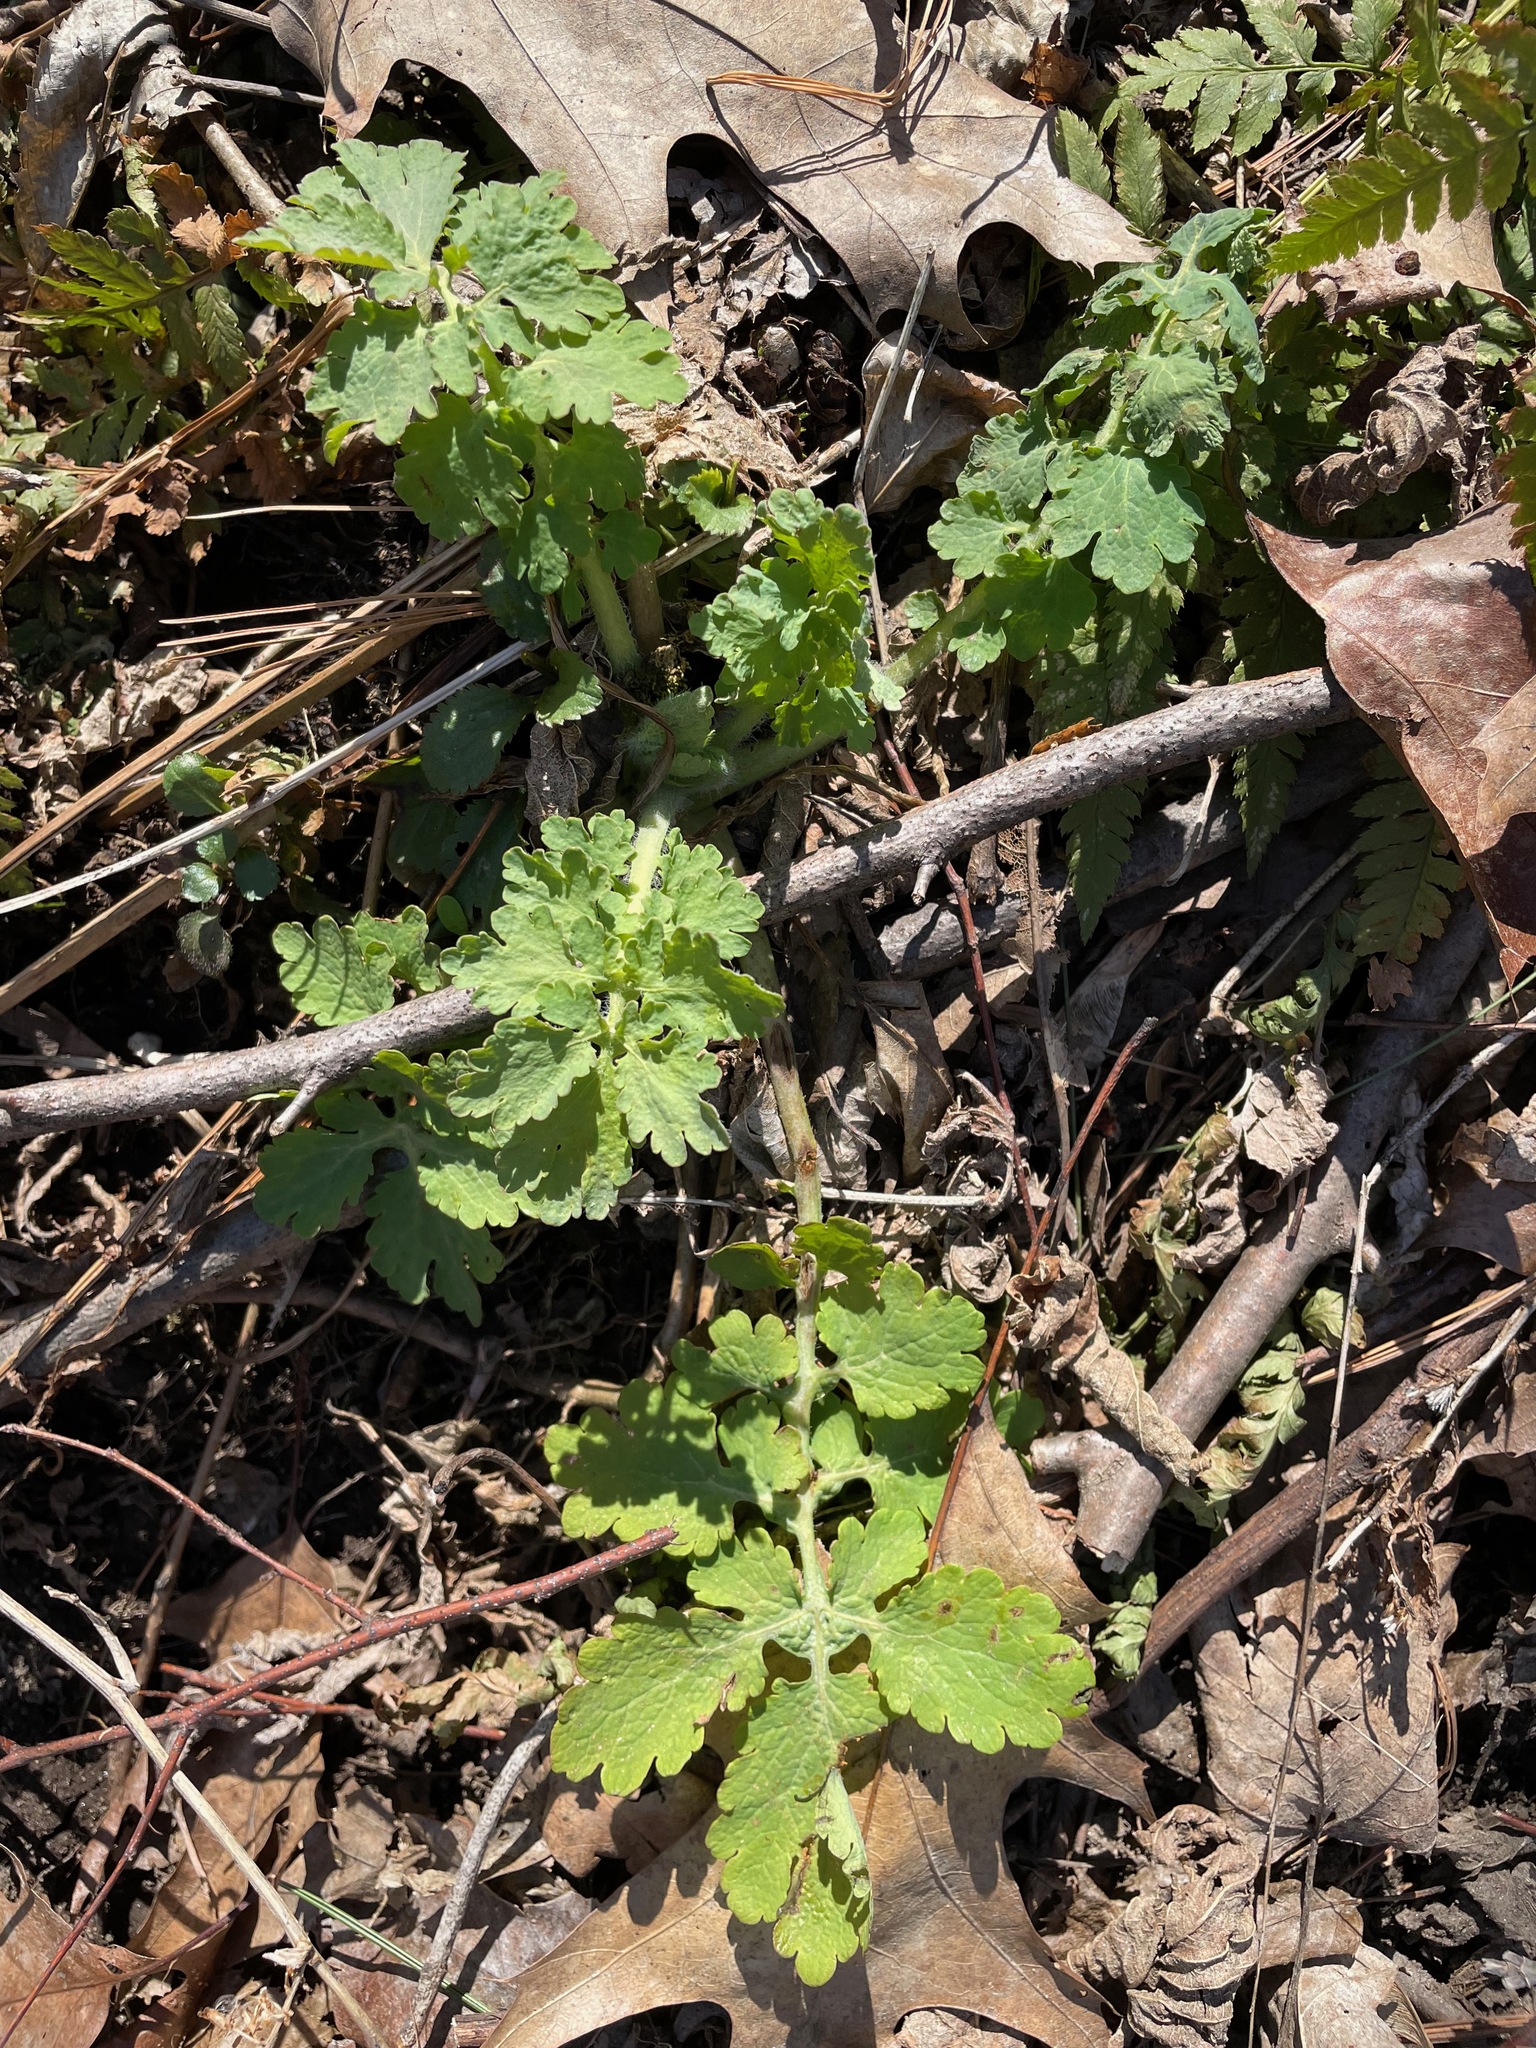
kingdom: Plantae
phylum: Tracheophyta
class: Magnoliopsida
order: Ranunculales
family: Papaveraceae
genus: Chelidonium
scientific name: Chelidonium majus
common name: Greater celandine
